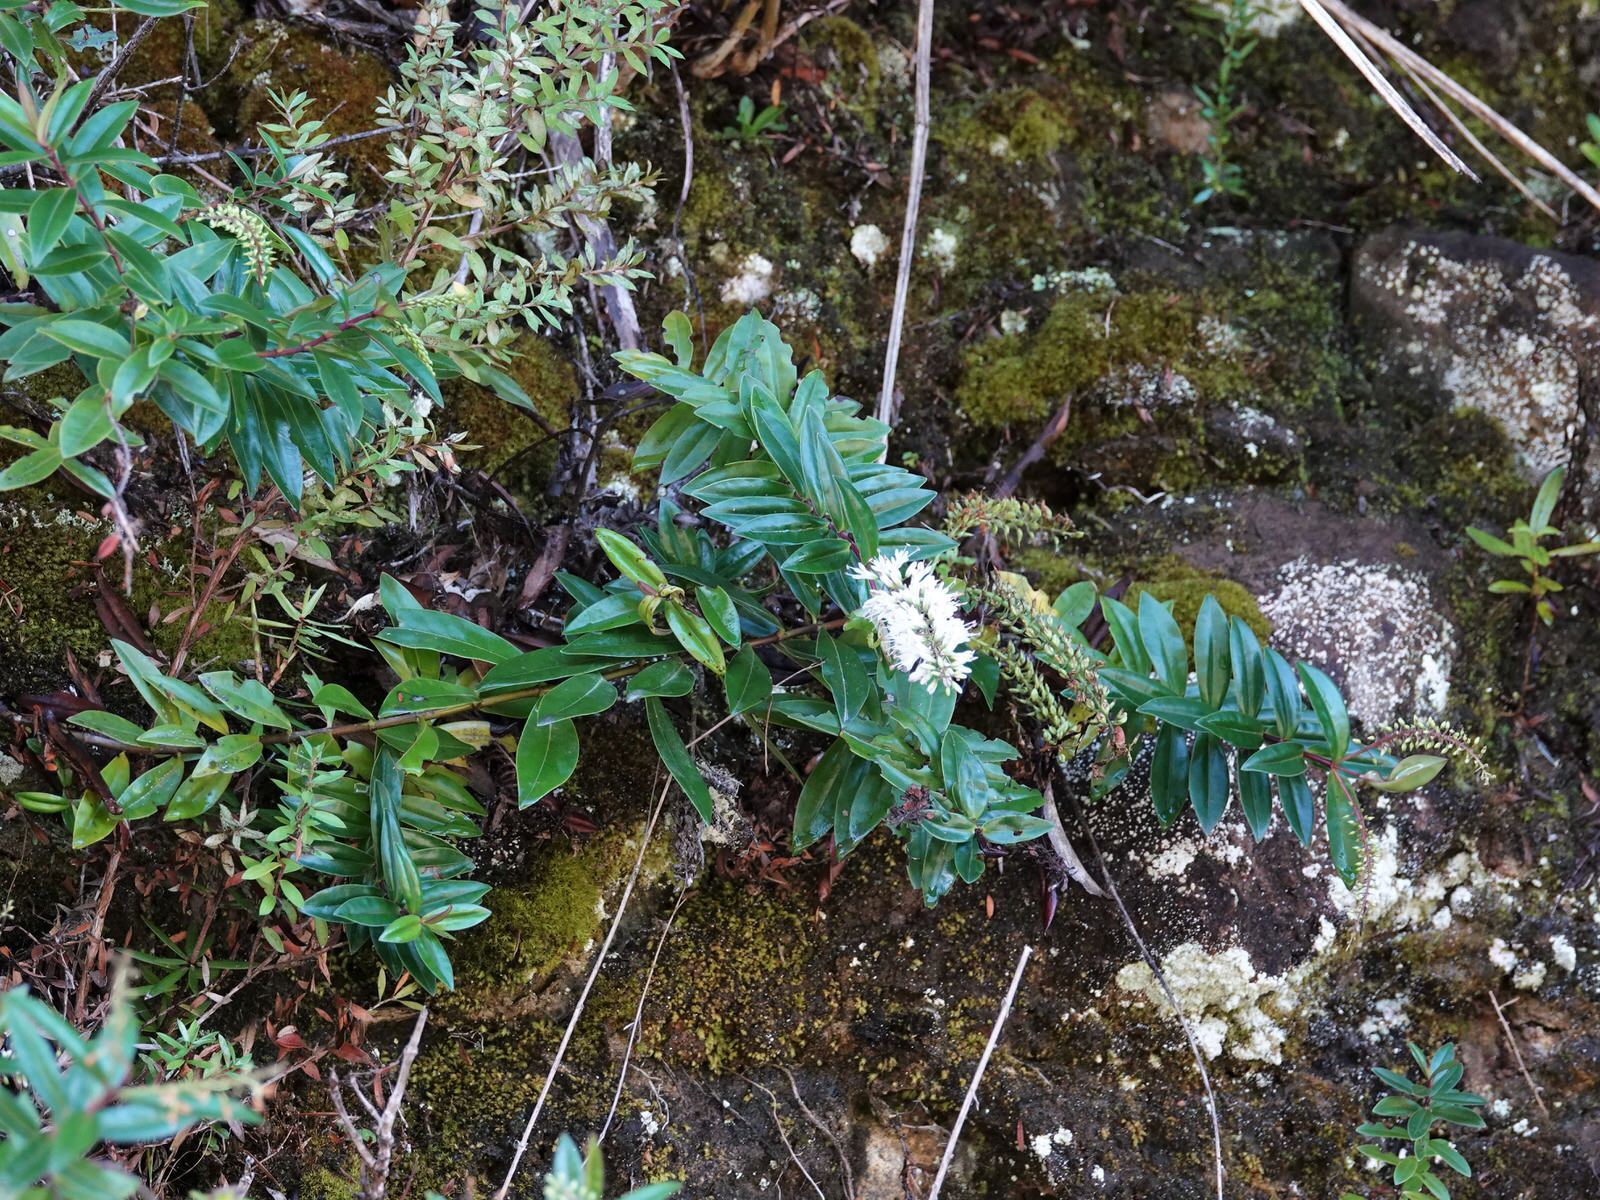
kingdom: Plantae
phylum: Tracheophyta
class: Magnoliopsida
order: Lamiales
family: Plantaginaceae
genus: Veronica
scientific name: Veronica bishopiana
